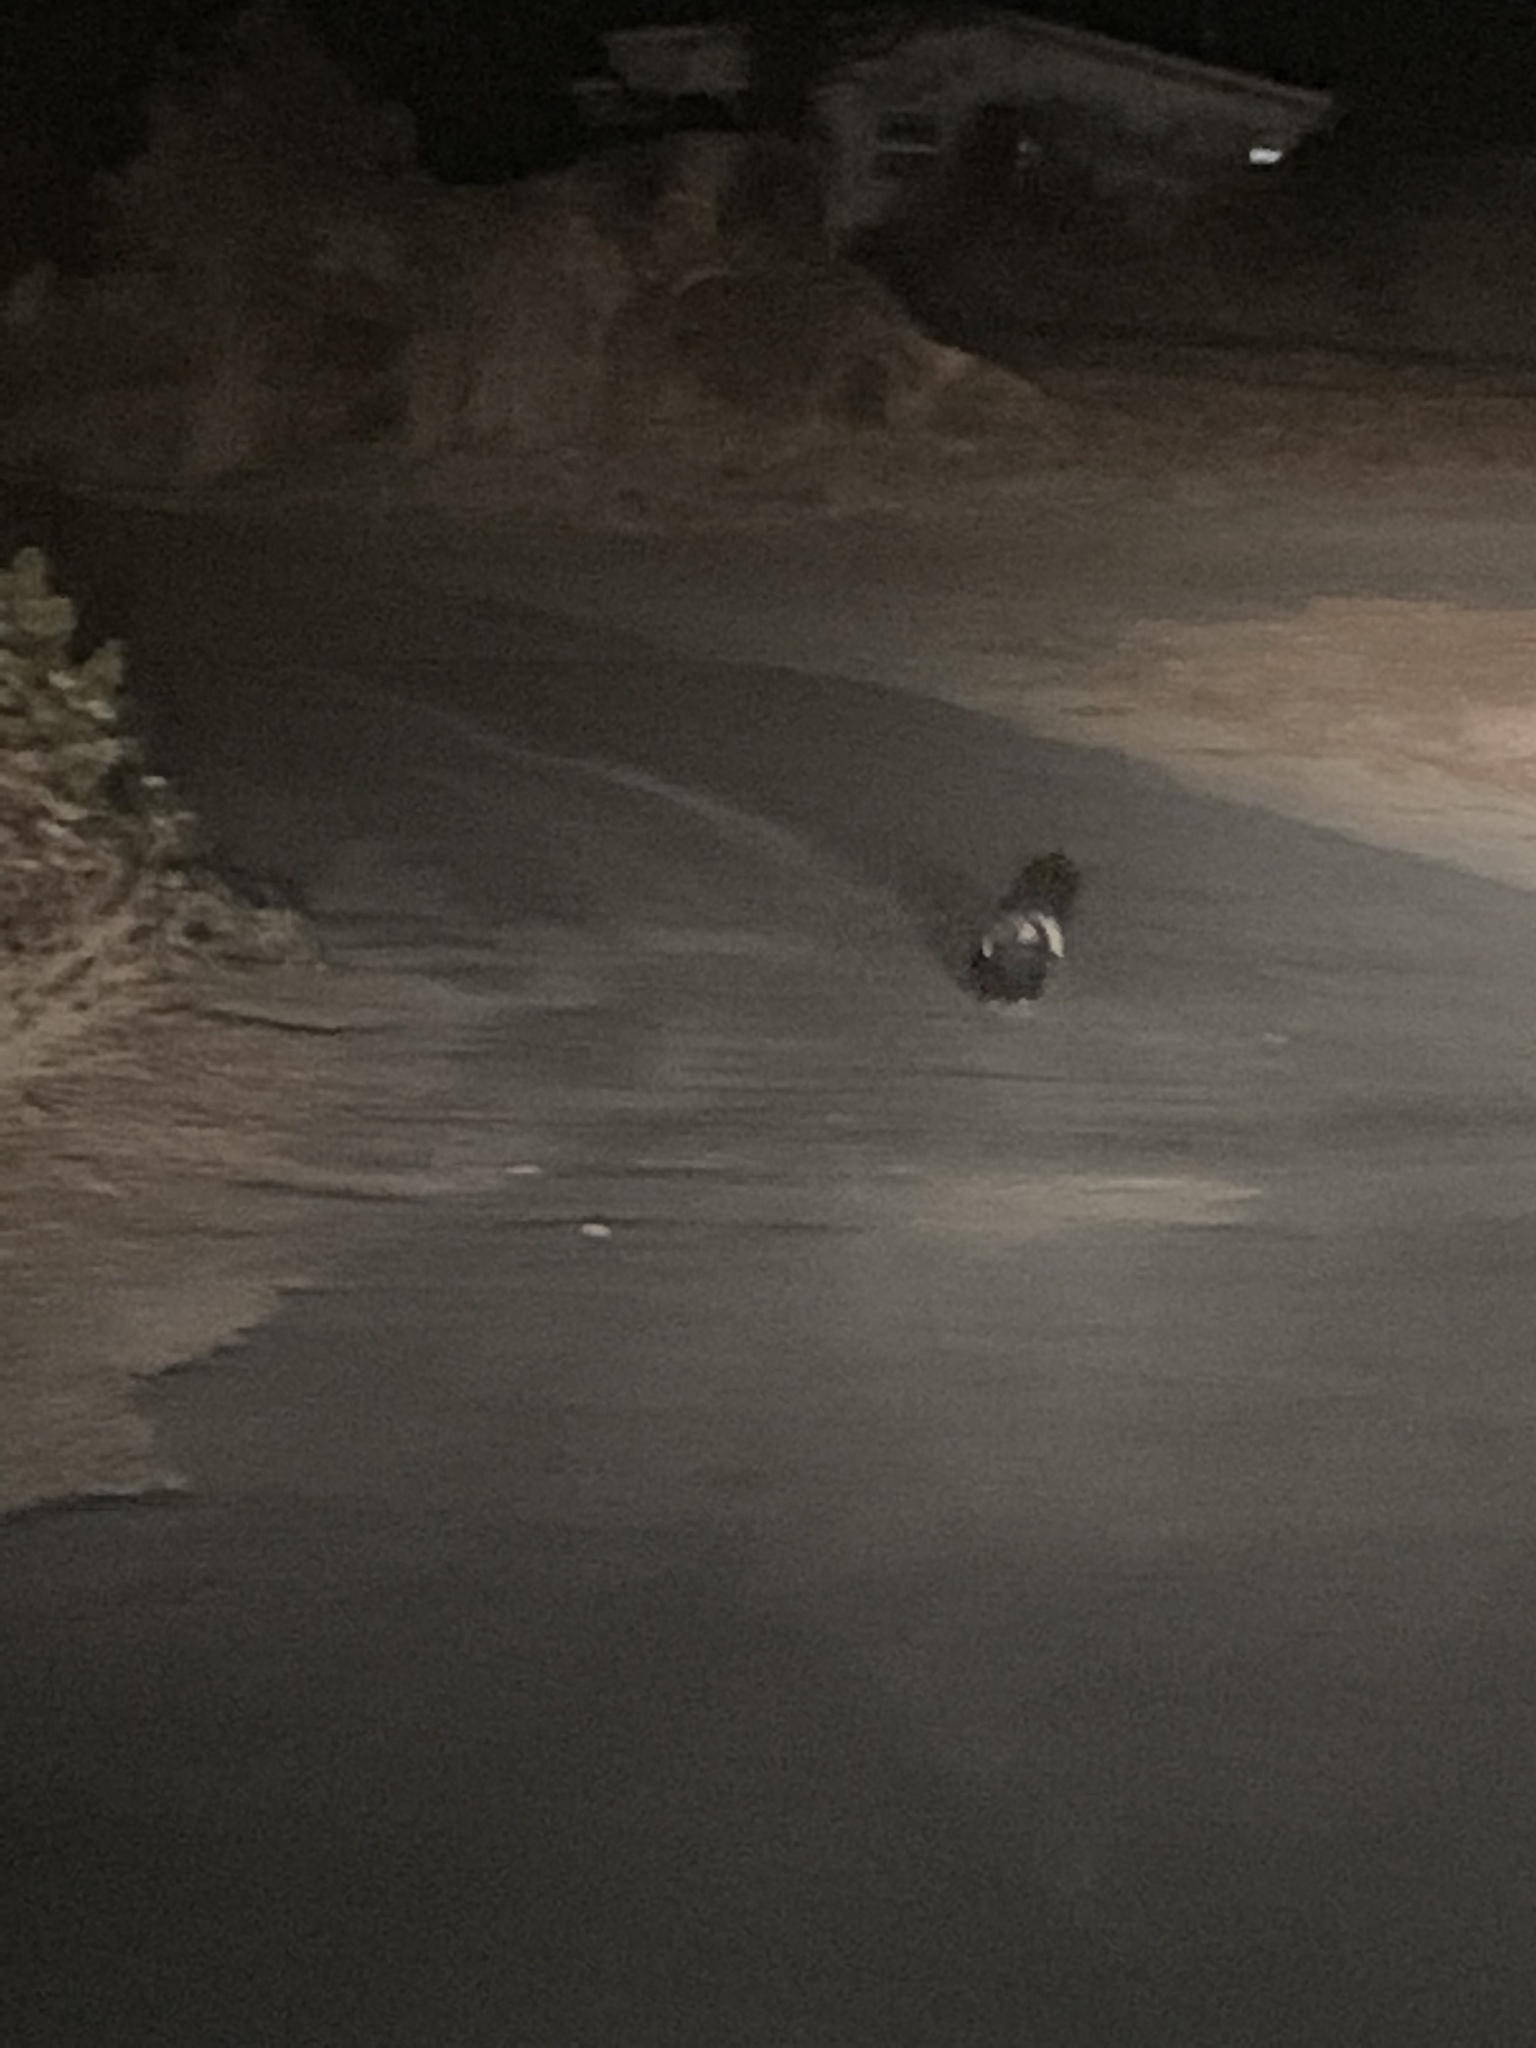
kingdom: Animalia
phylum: Chordata
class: Mammalia
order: Carnivora
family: Mephitidae
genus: Mephitis
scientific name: Mephitis mephitis
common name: Striped skunk
